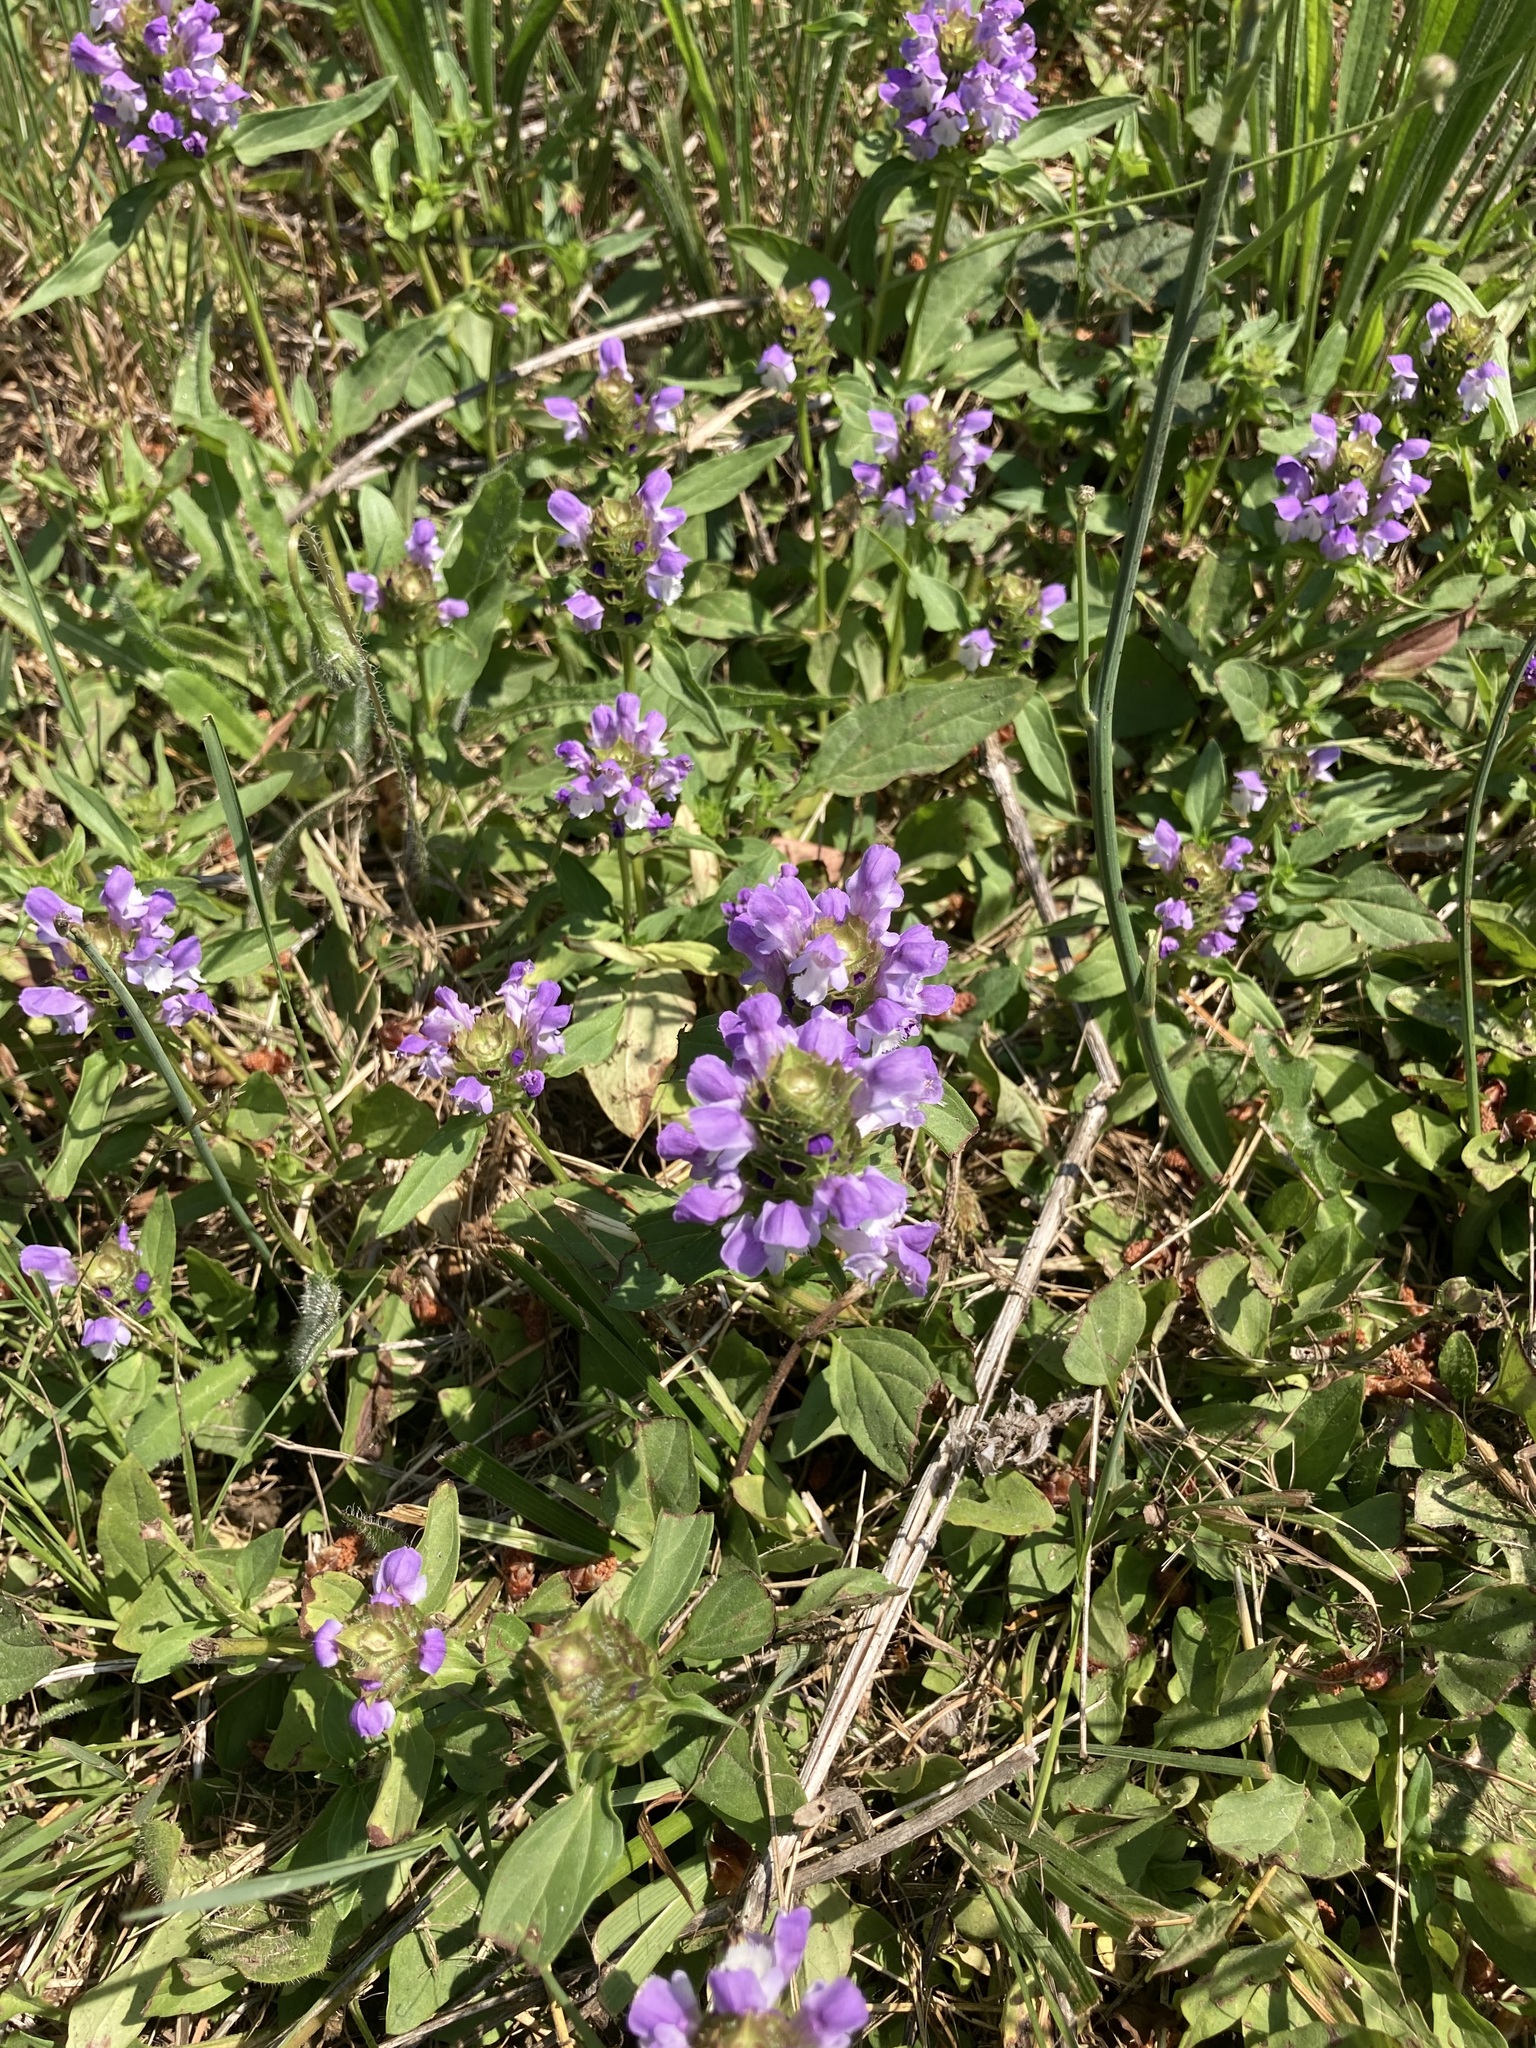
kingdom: Plantae
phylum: Tracheophyta
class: Magnoliopsida
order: Lamiales
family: Lamiaceae
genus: Prunella
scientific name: Prunella vulgaris
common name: Heal-all
